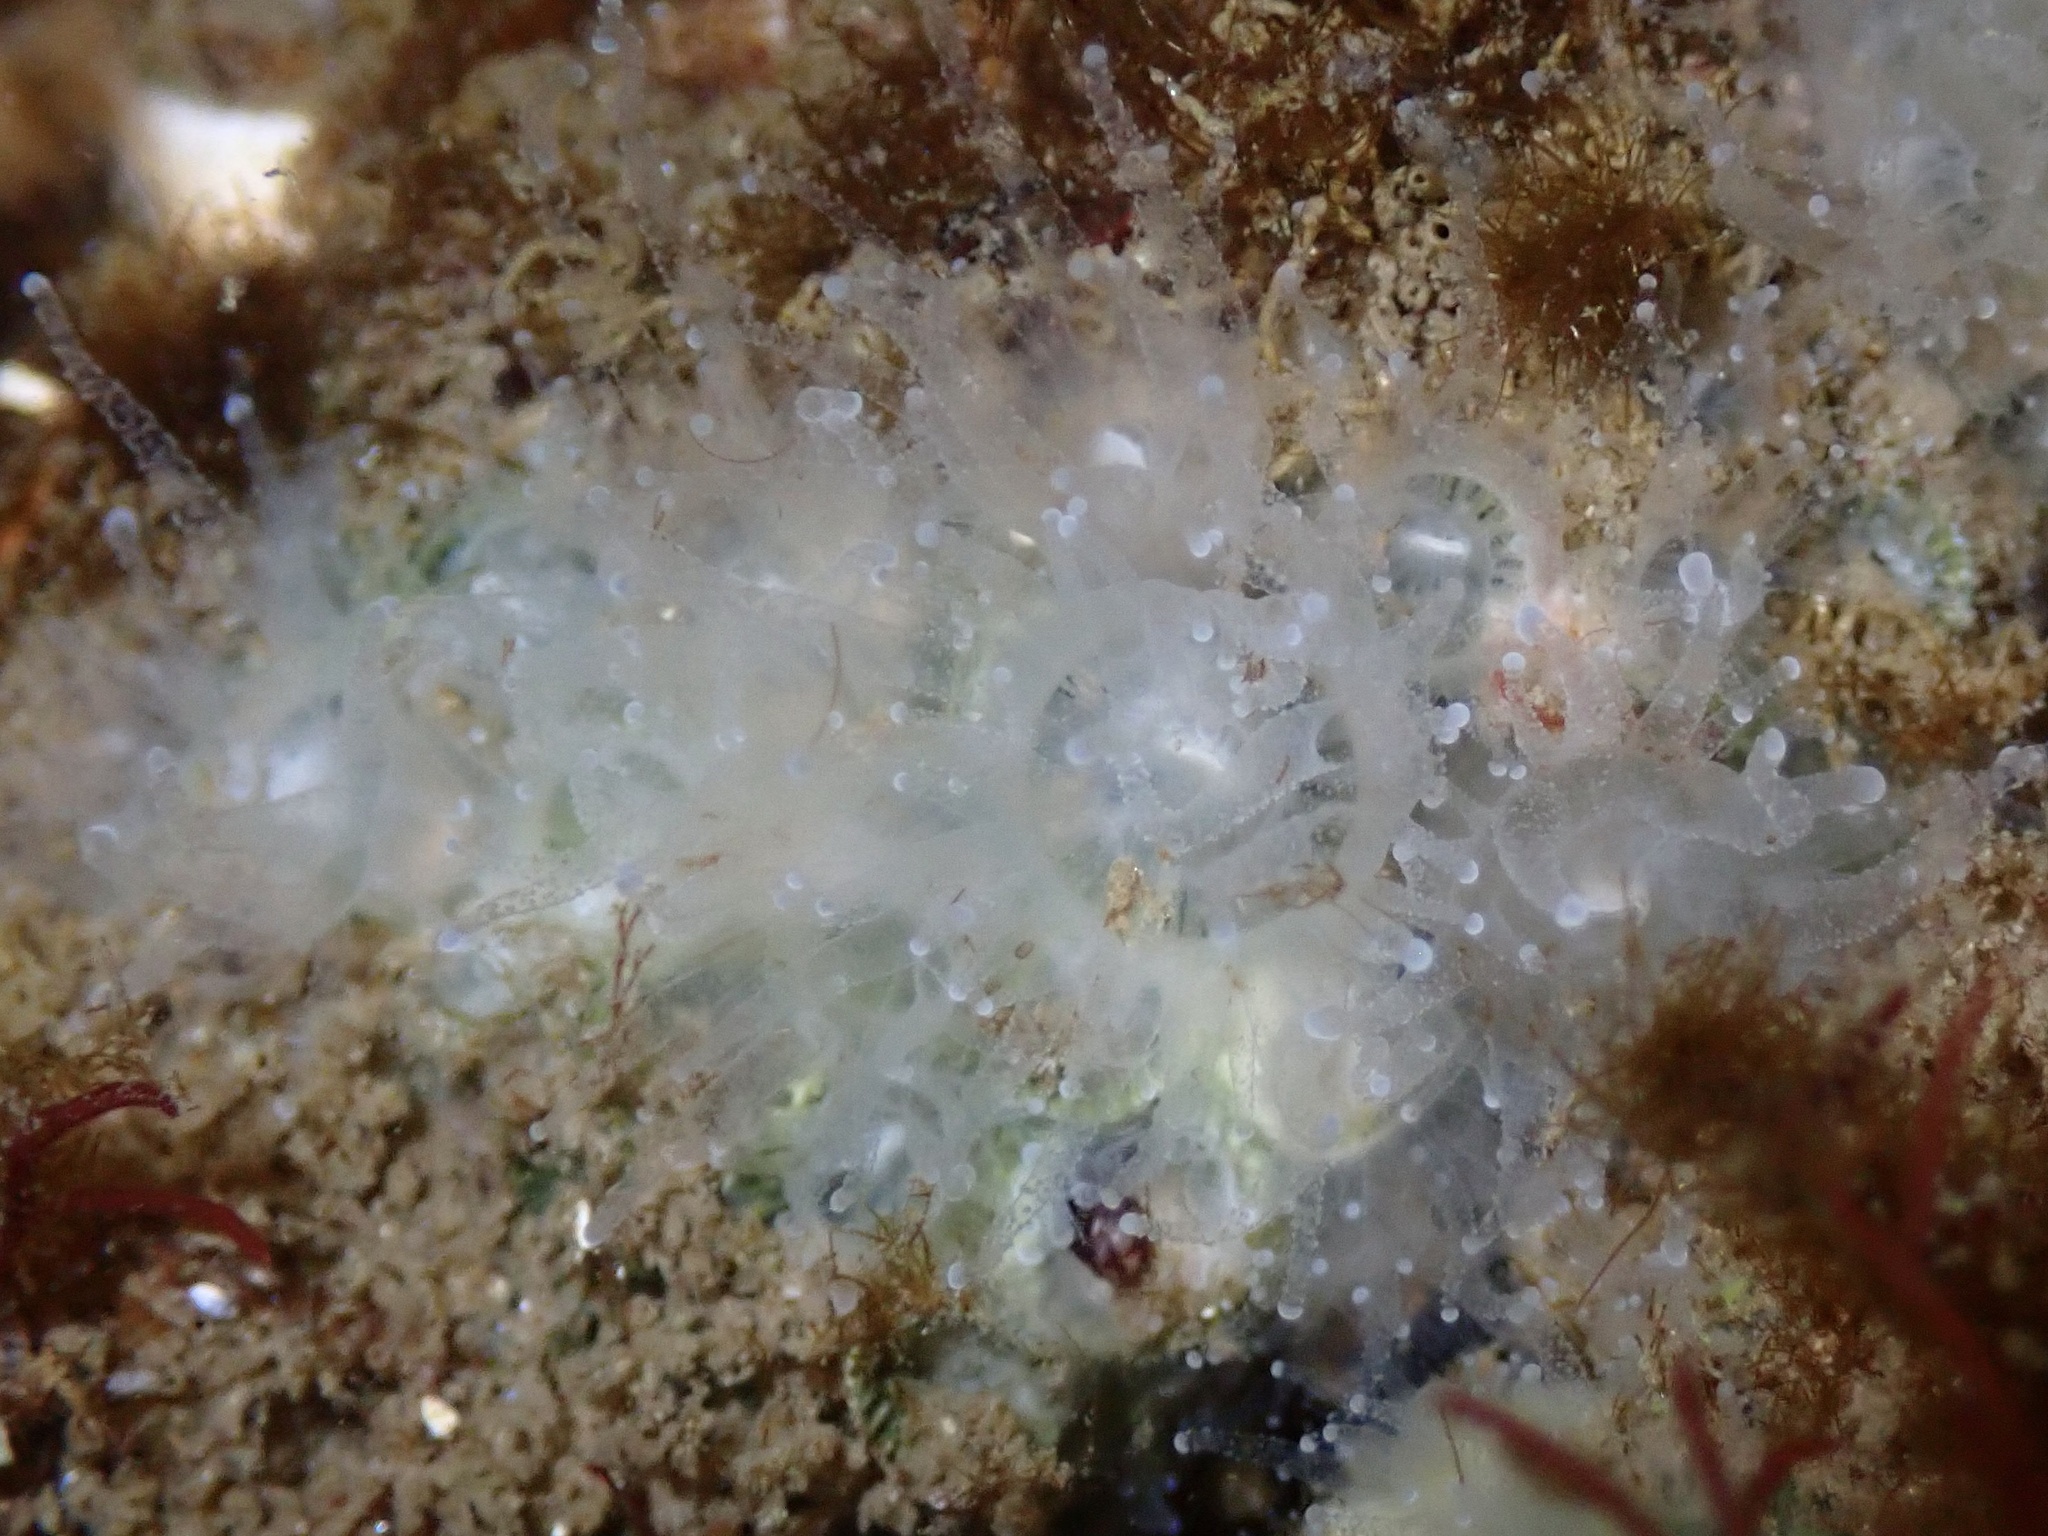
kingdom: Animalia
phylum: Cnidaria
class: Anthozoa
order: Scleractinia
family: Astrangiidae
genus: Astrangia
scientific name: Astrangia poculata
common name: Northern star coral
